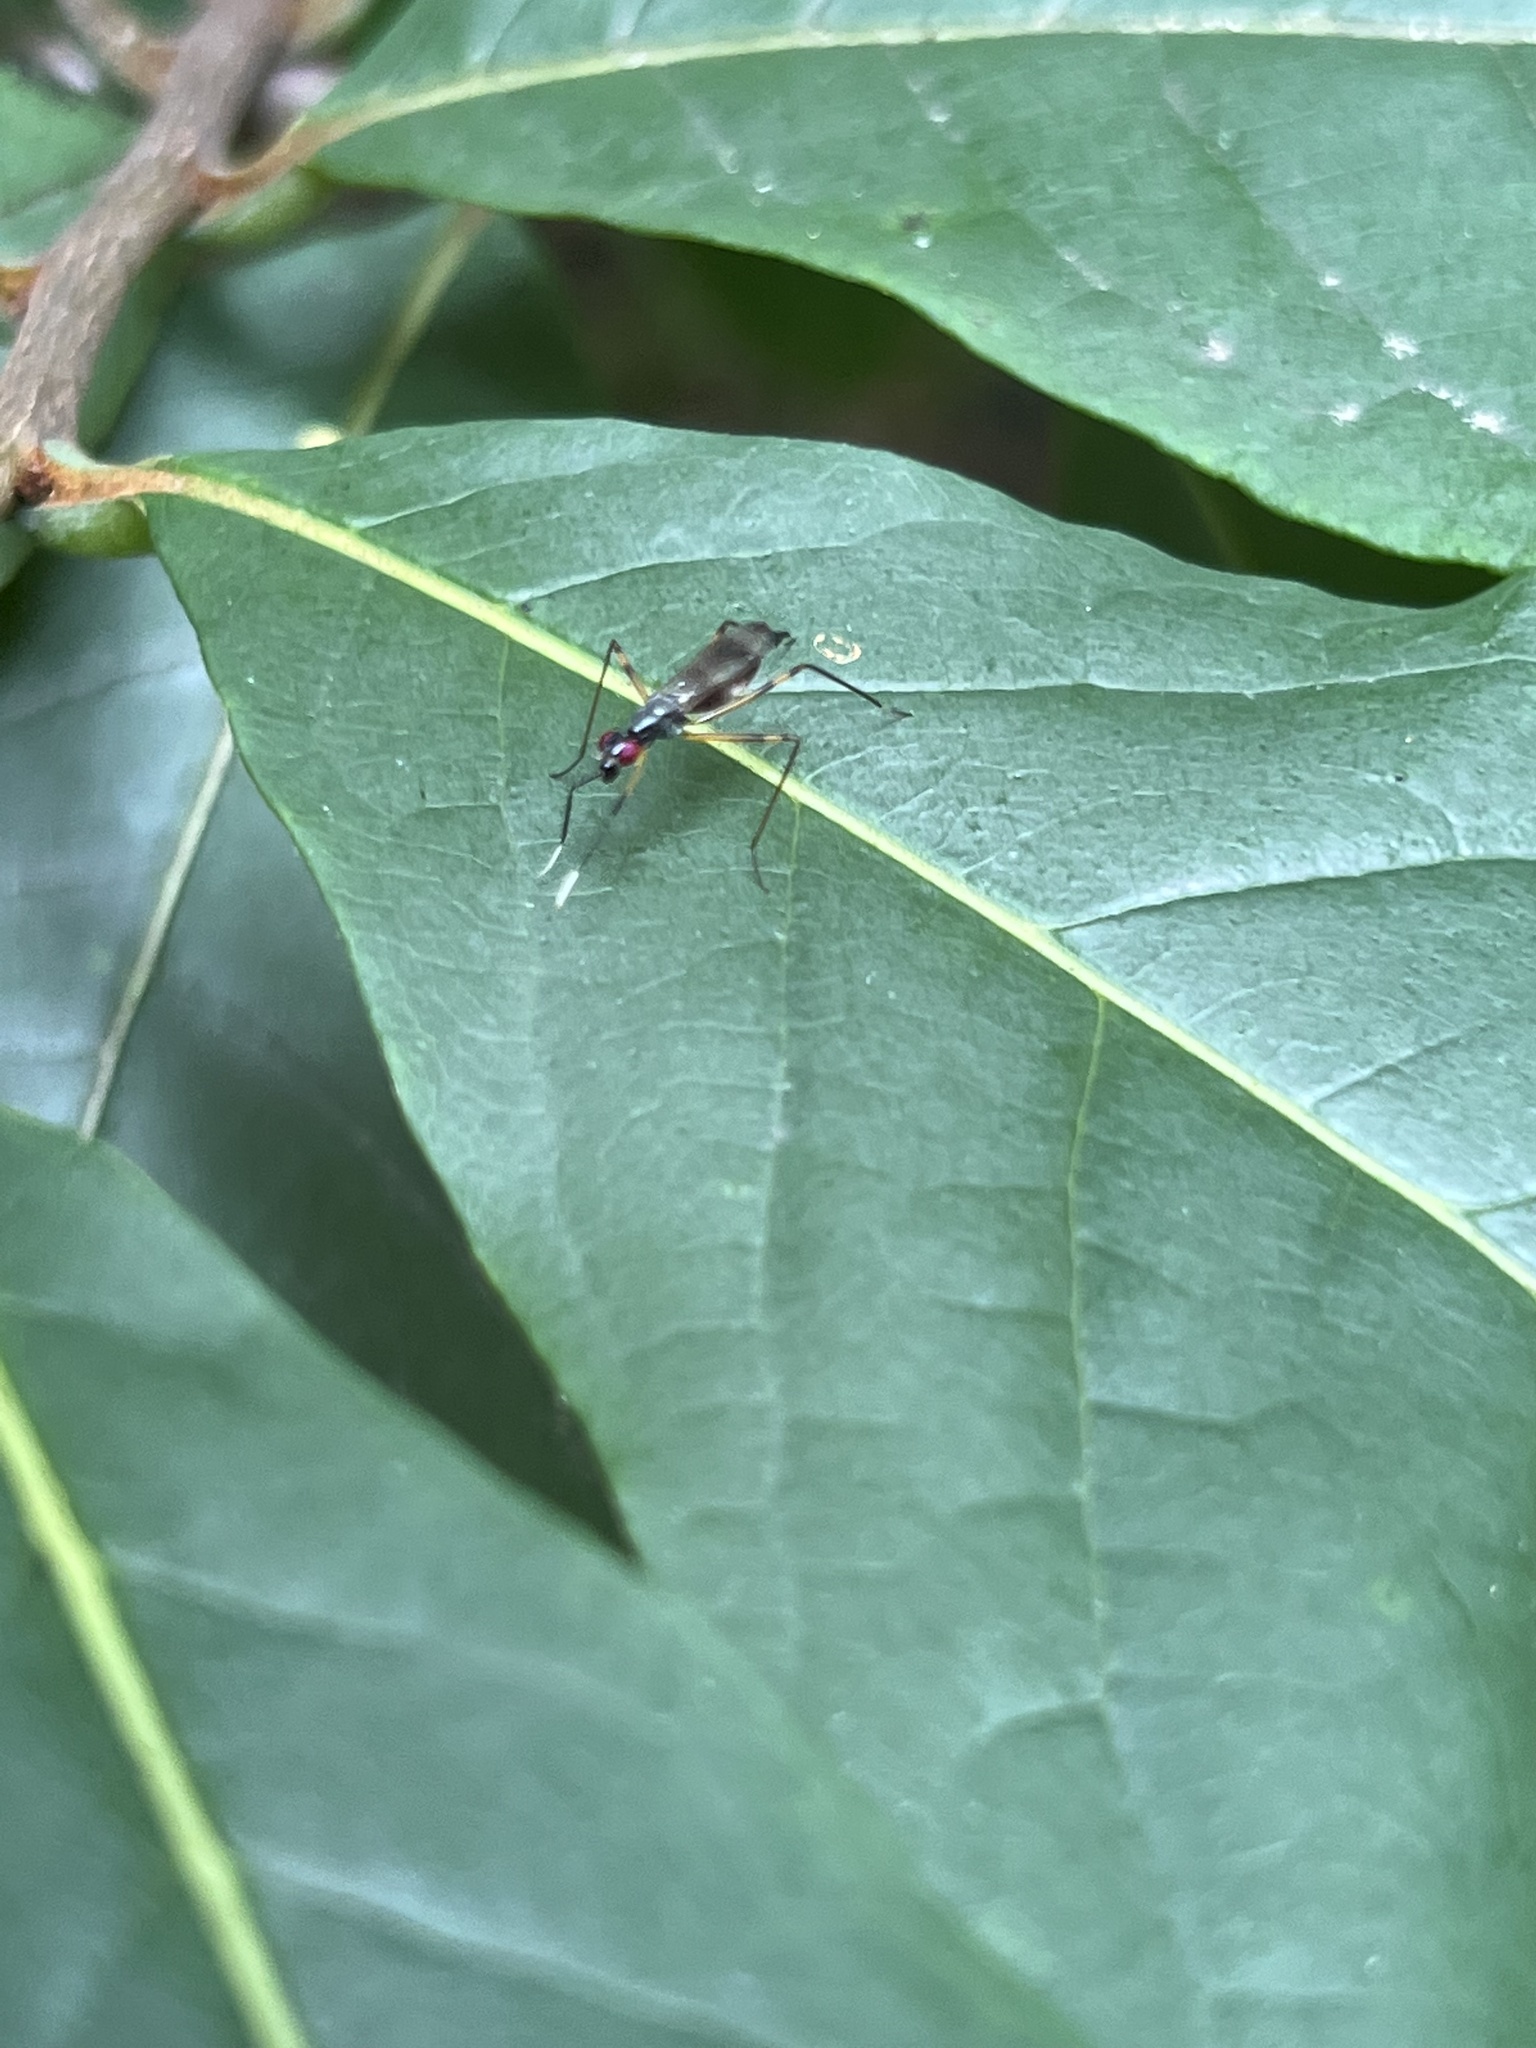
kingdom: Animalia
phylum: Arthropoda
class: Insecta
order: Diptera
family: Micropezidae
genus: Rainieria
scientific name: Rainieria antennaepes
